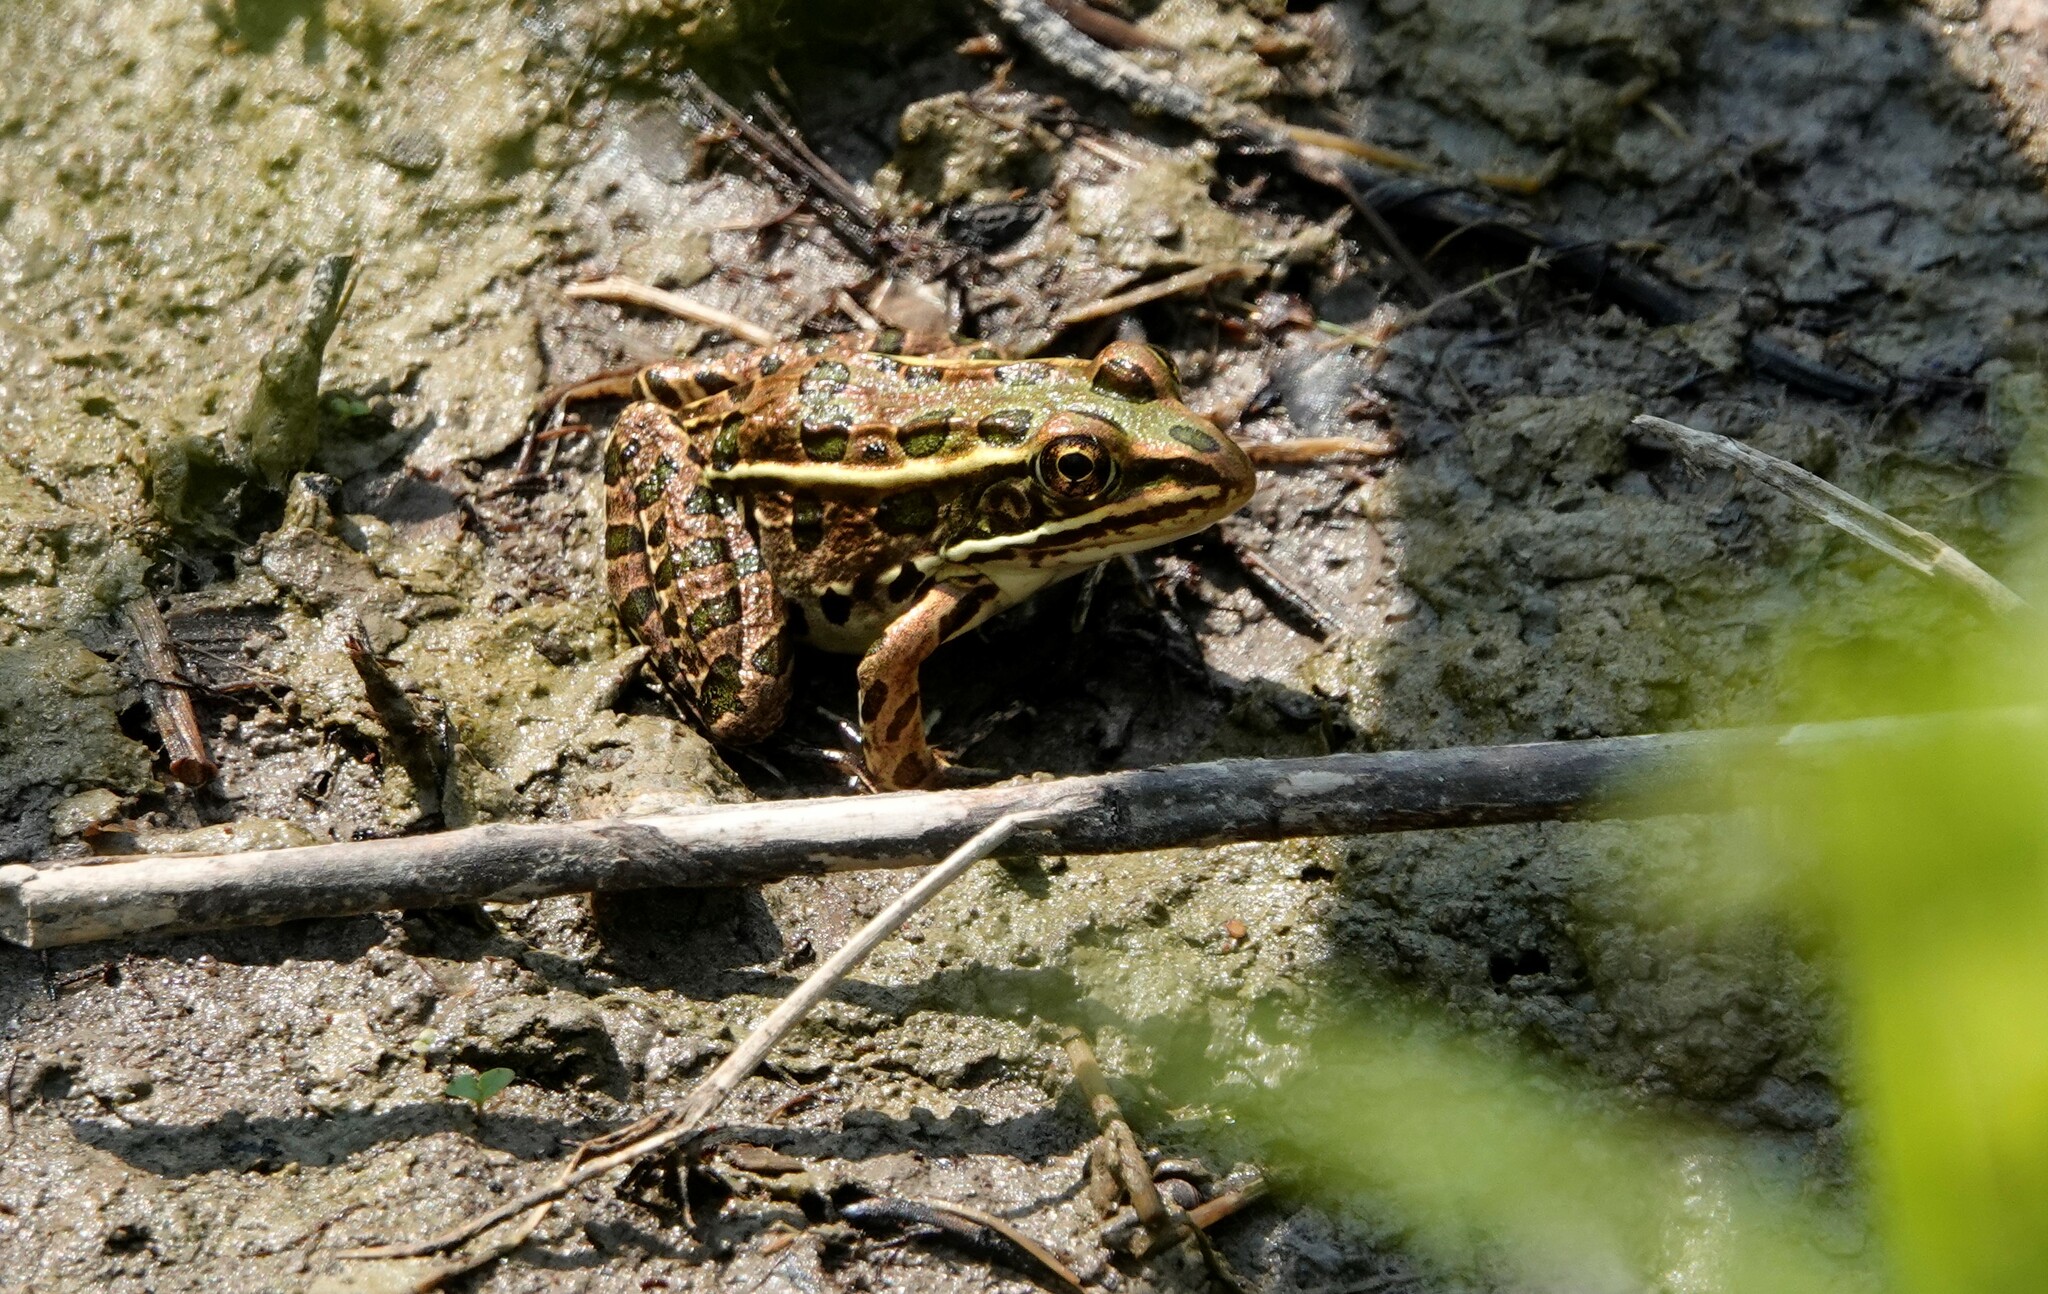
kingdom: Animalia
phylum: Chordata
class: Amphibia
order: Anura
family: Ranidae
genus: Lithobates
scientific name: Lithobates pipiens
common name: Northern leopard frog
